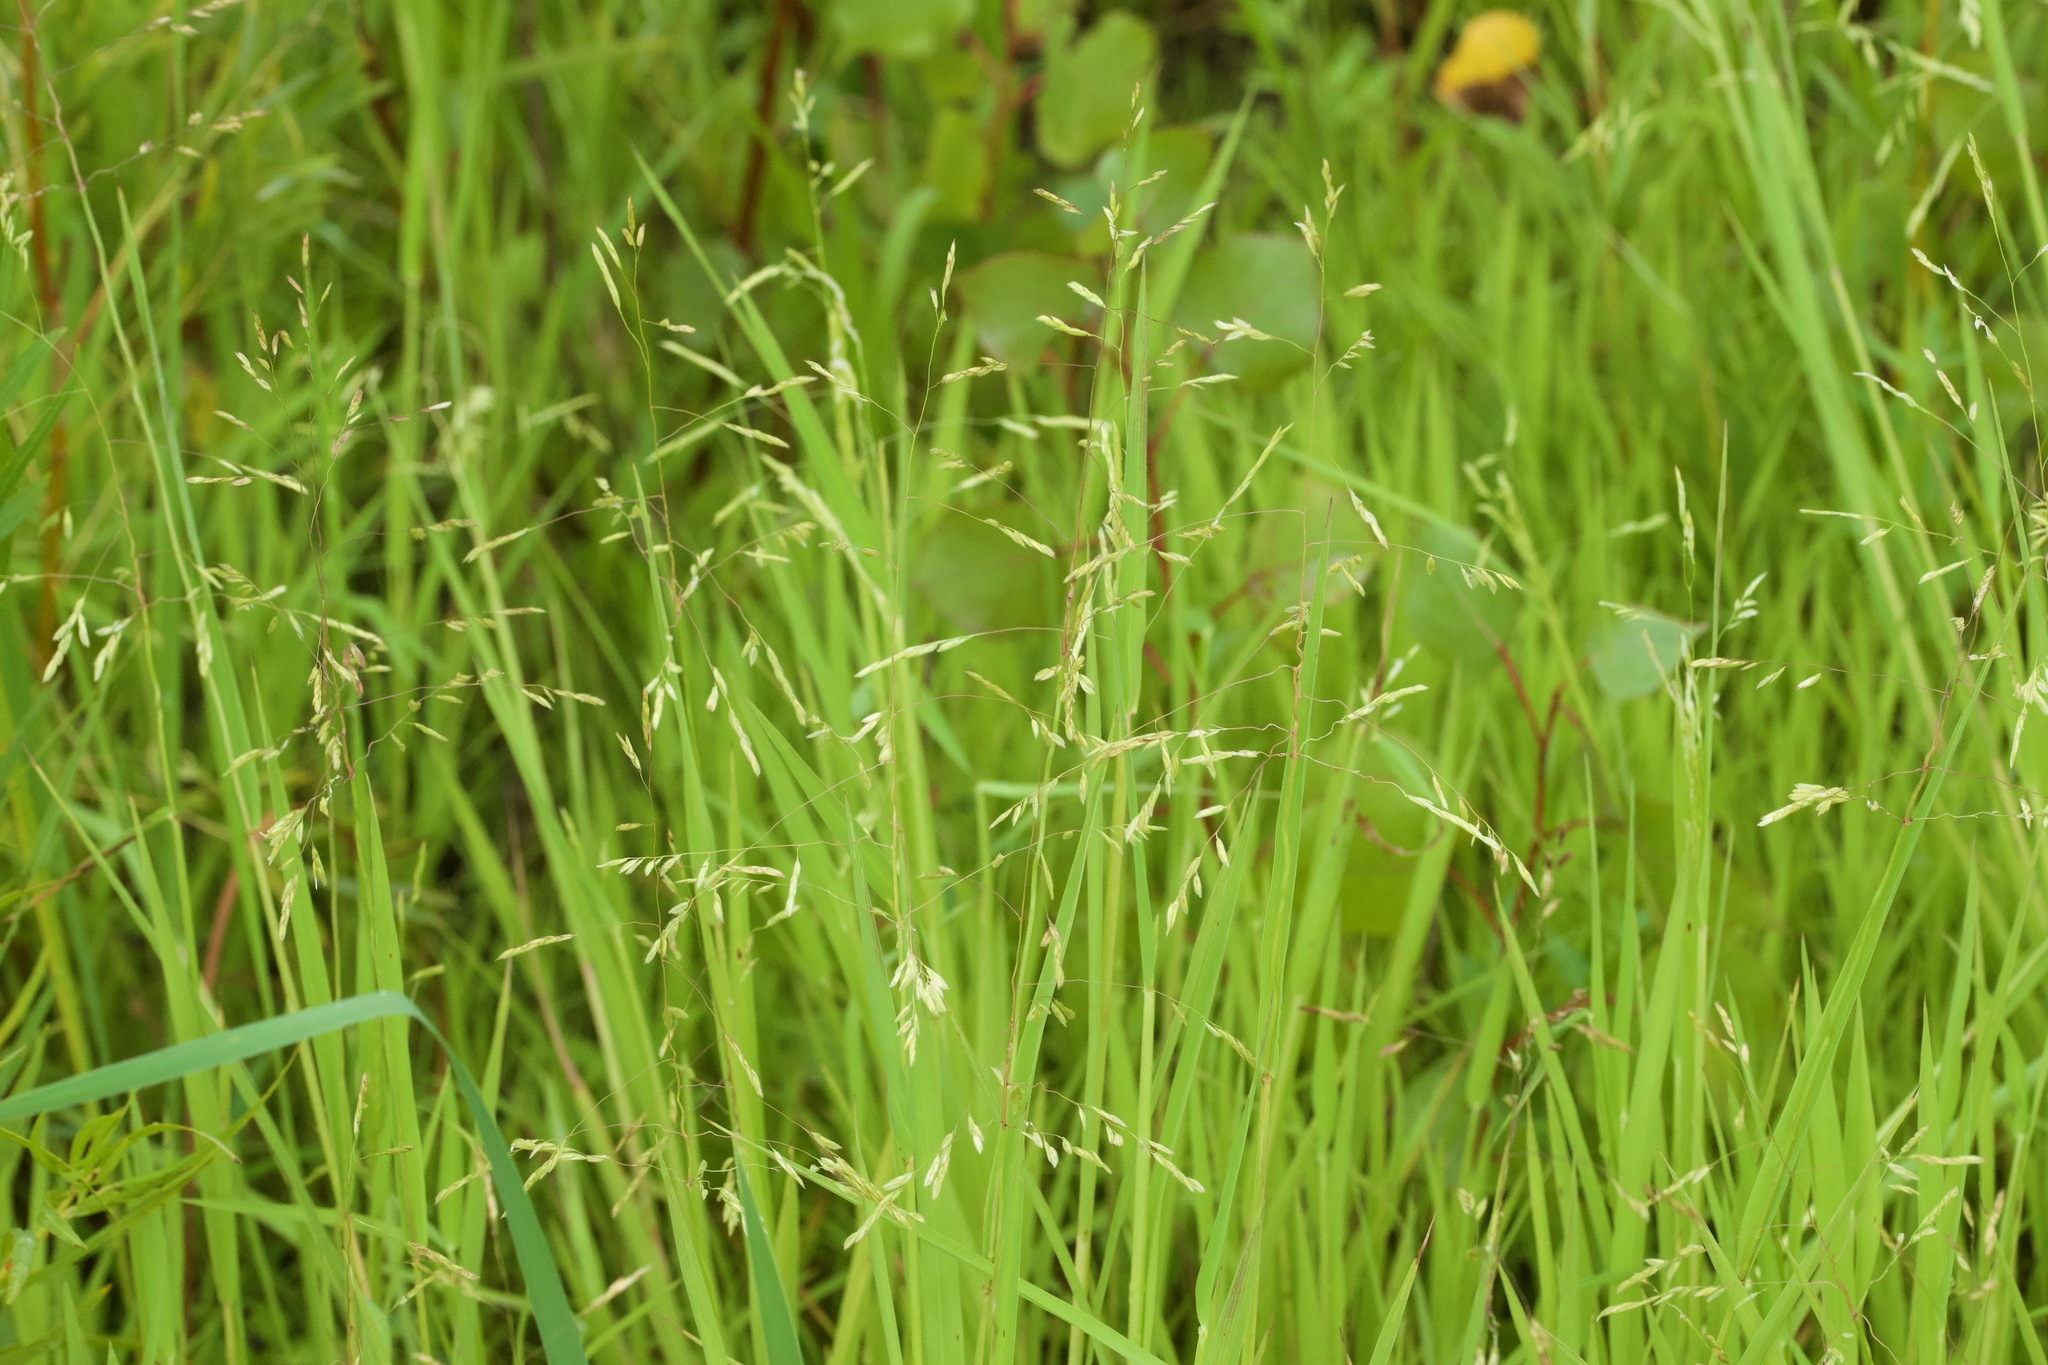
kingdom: Plantae
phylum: Tracheophyta
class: Liliopsida
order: Poales
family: Poaceae
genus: Leersia
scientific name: Leersia oryzoides
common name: Cut-grass
